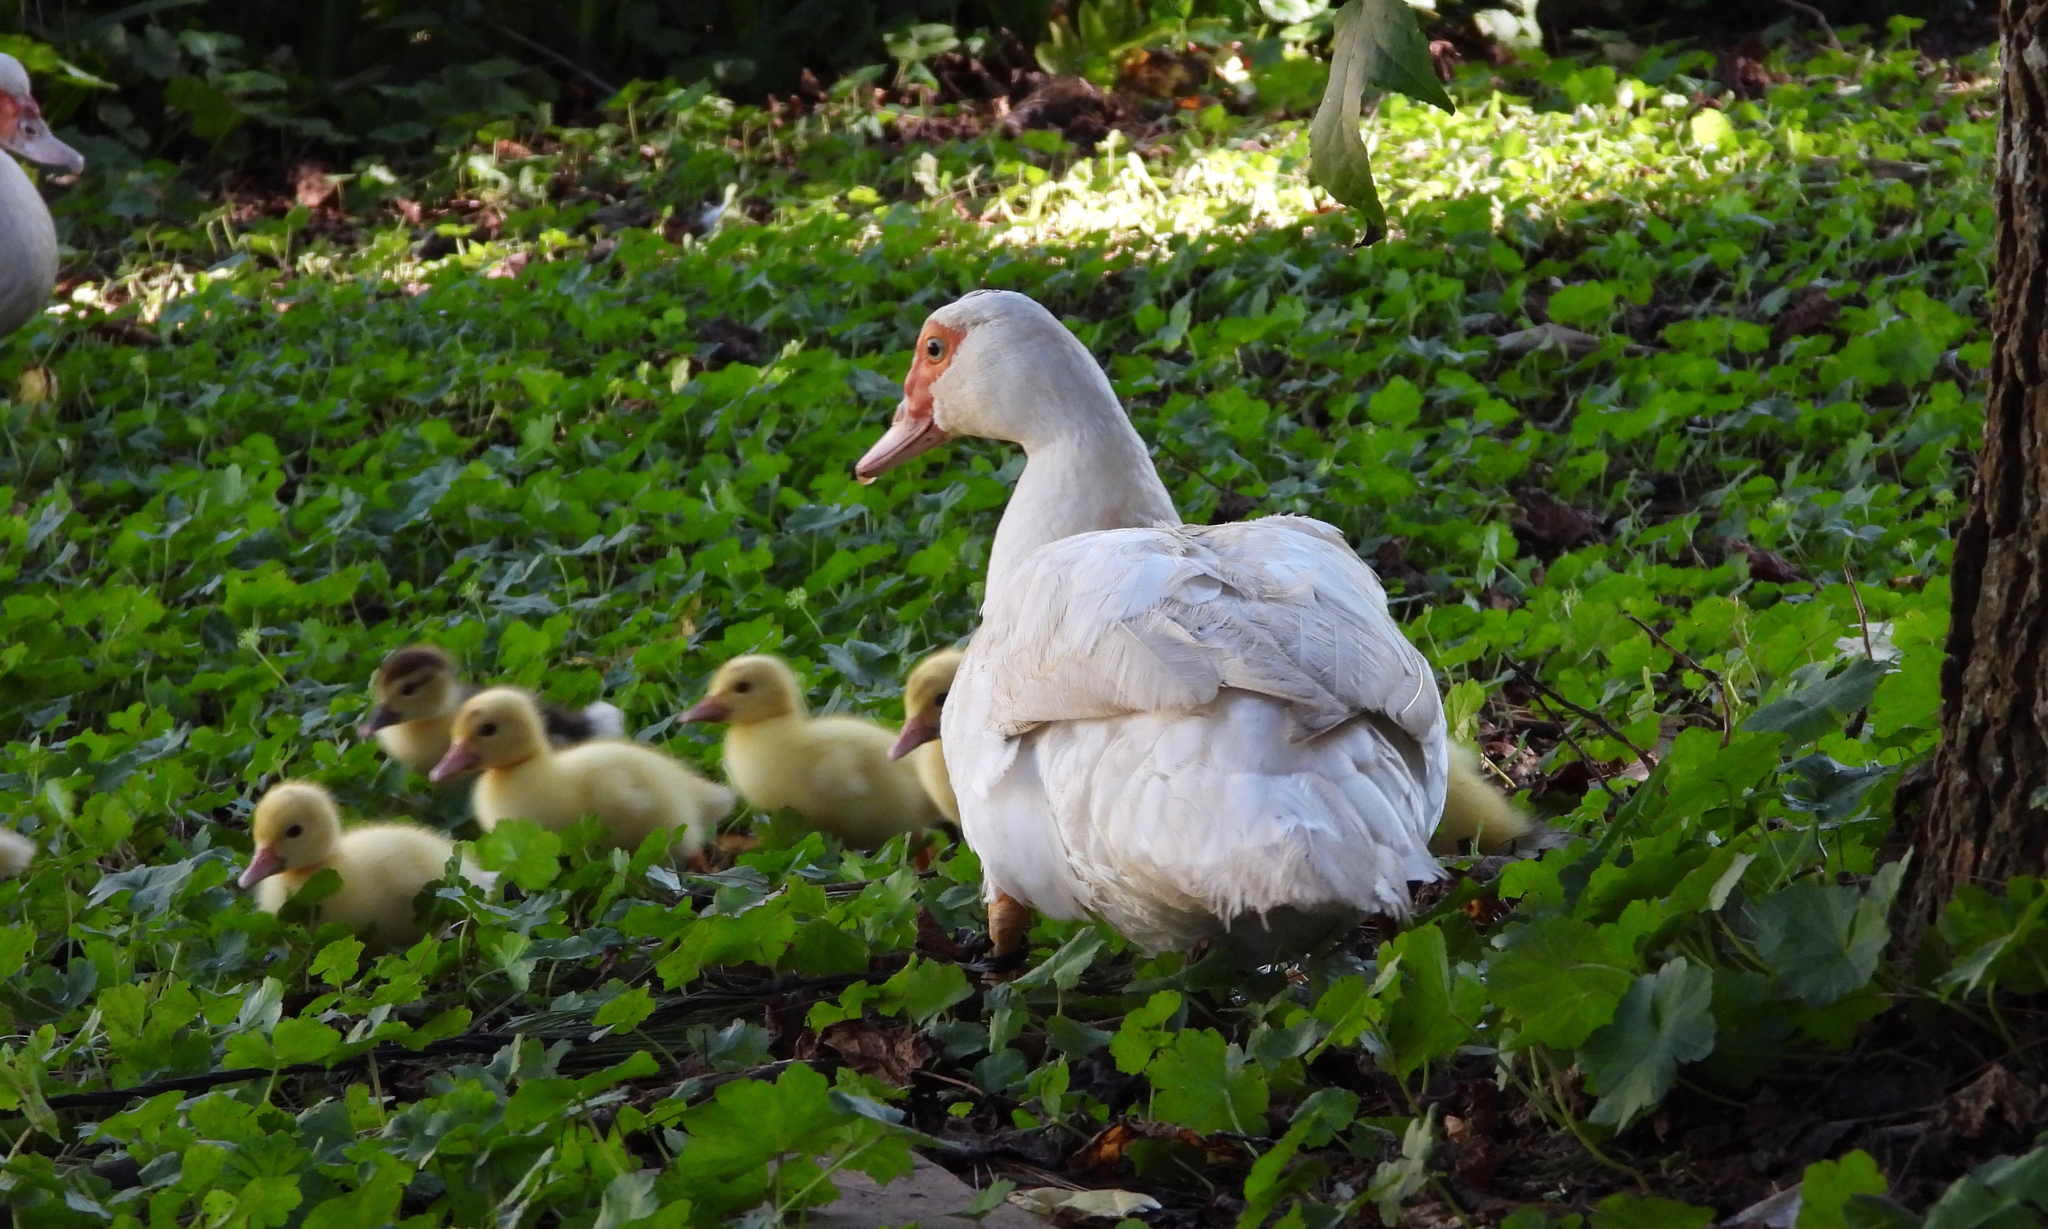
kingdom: Animalia
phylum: Chordata
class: Aves
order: Anseriformes
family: Anatidae
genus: Cairina
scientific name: Cairina moschata
